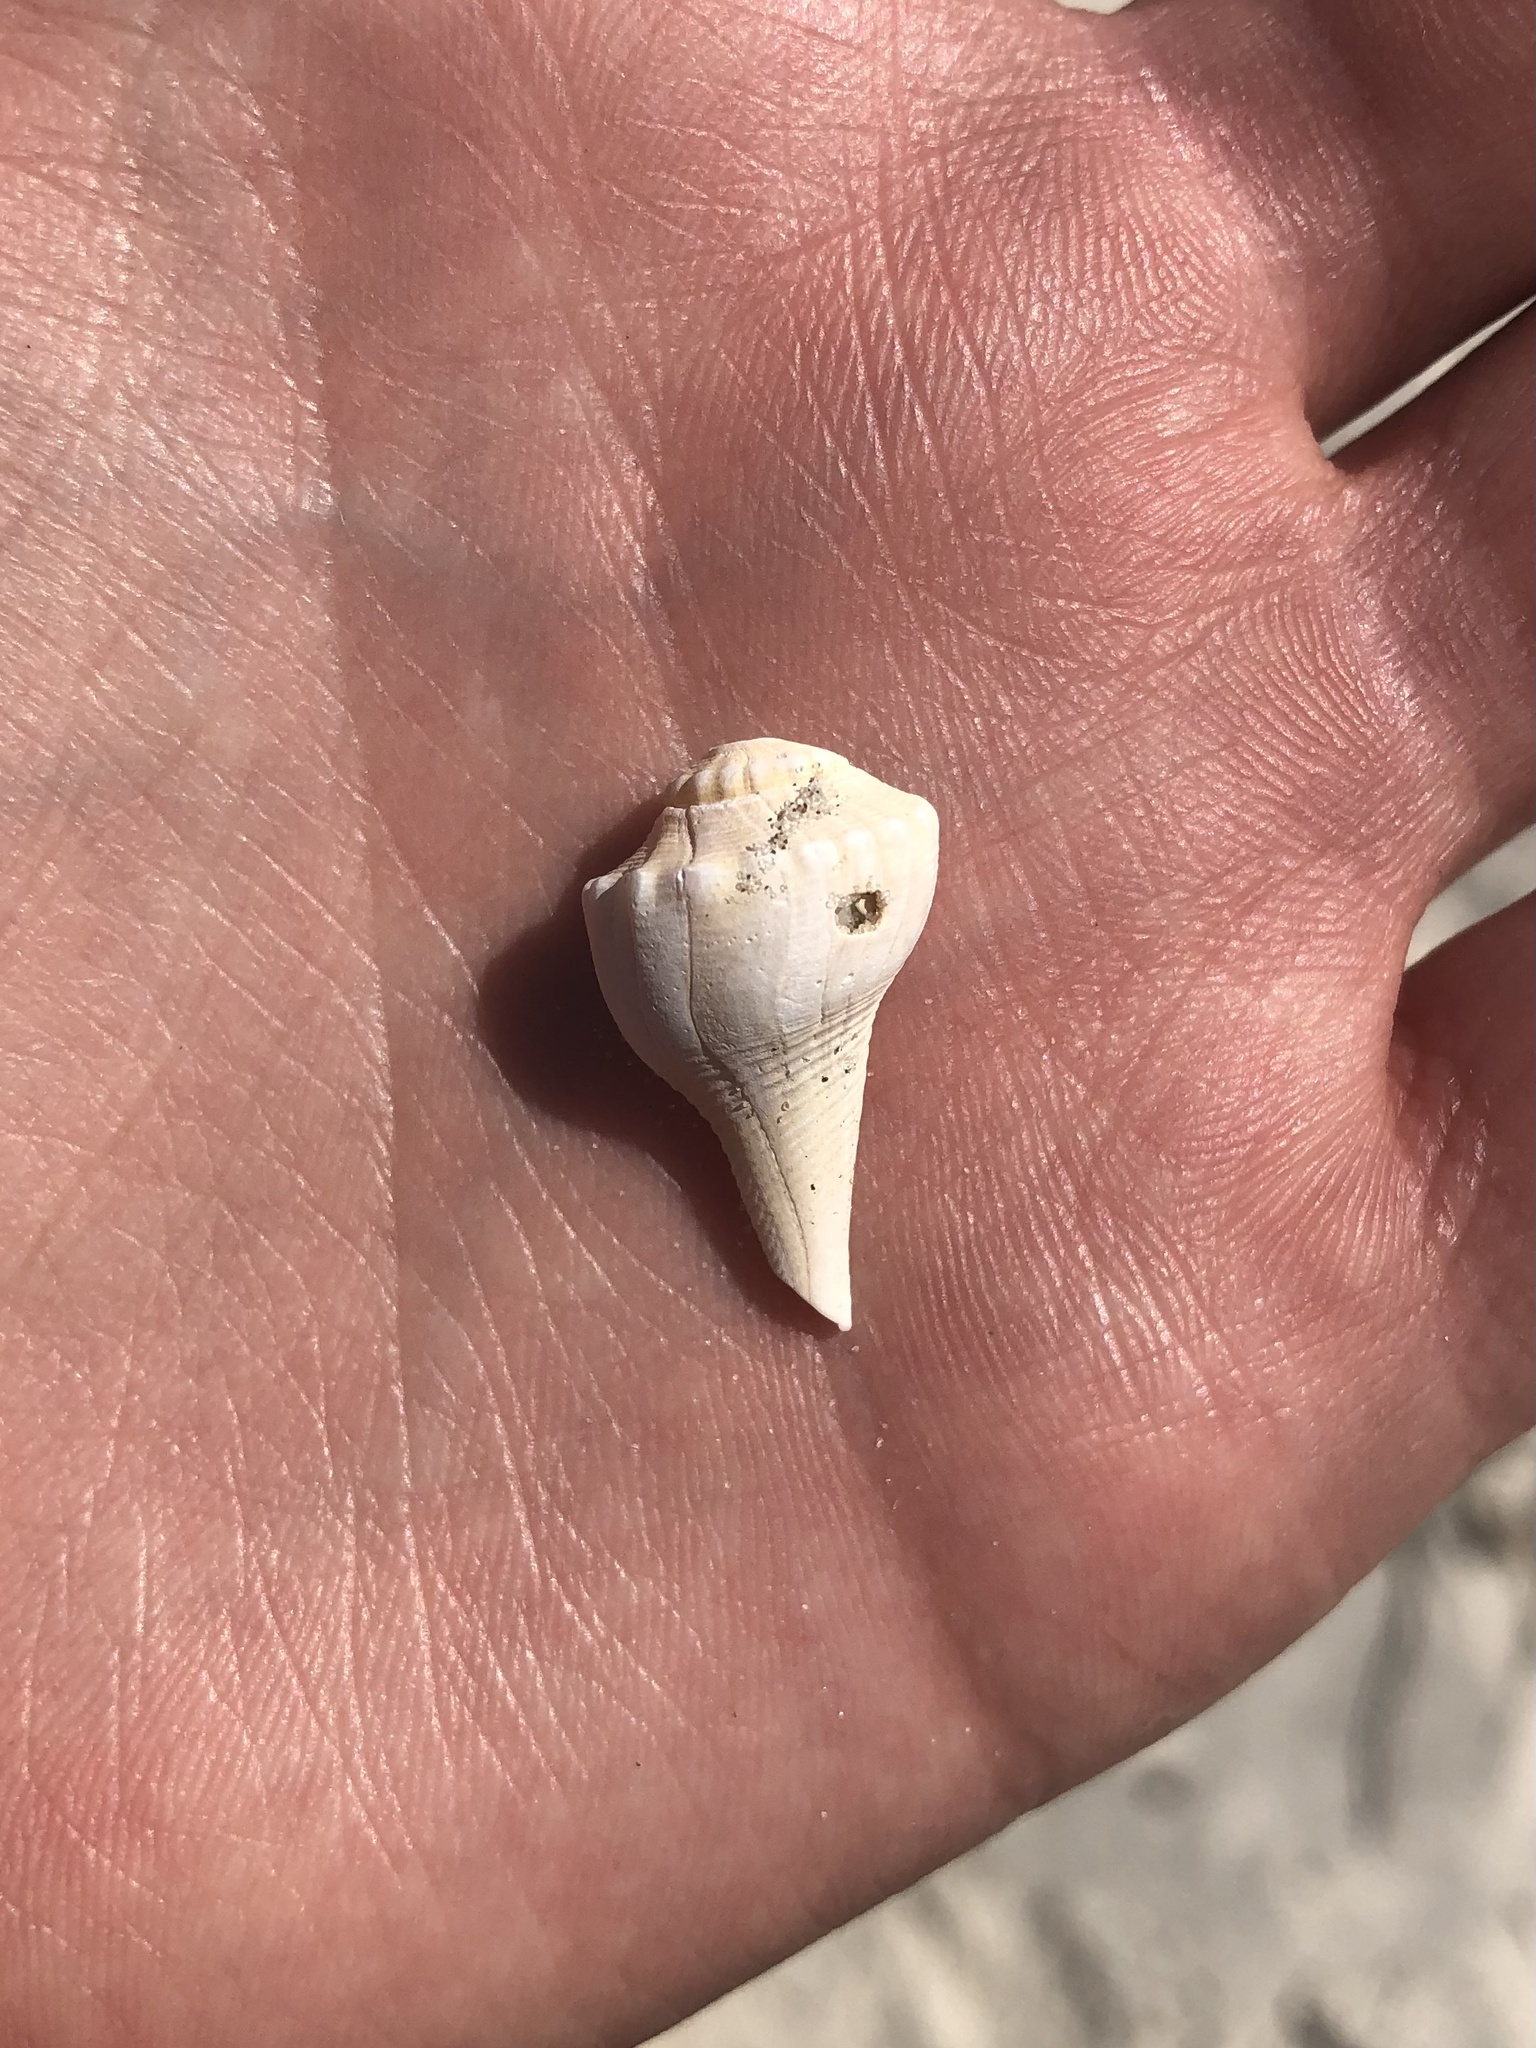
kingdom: Animalia
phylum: Mollusca
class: Gastropoda
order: Neogastropoda
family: Busyconidae
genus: Busycon
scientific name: Busycon carica
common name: Knobbed whelk
